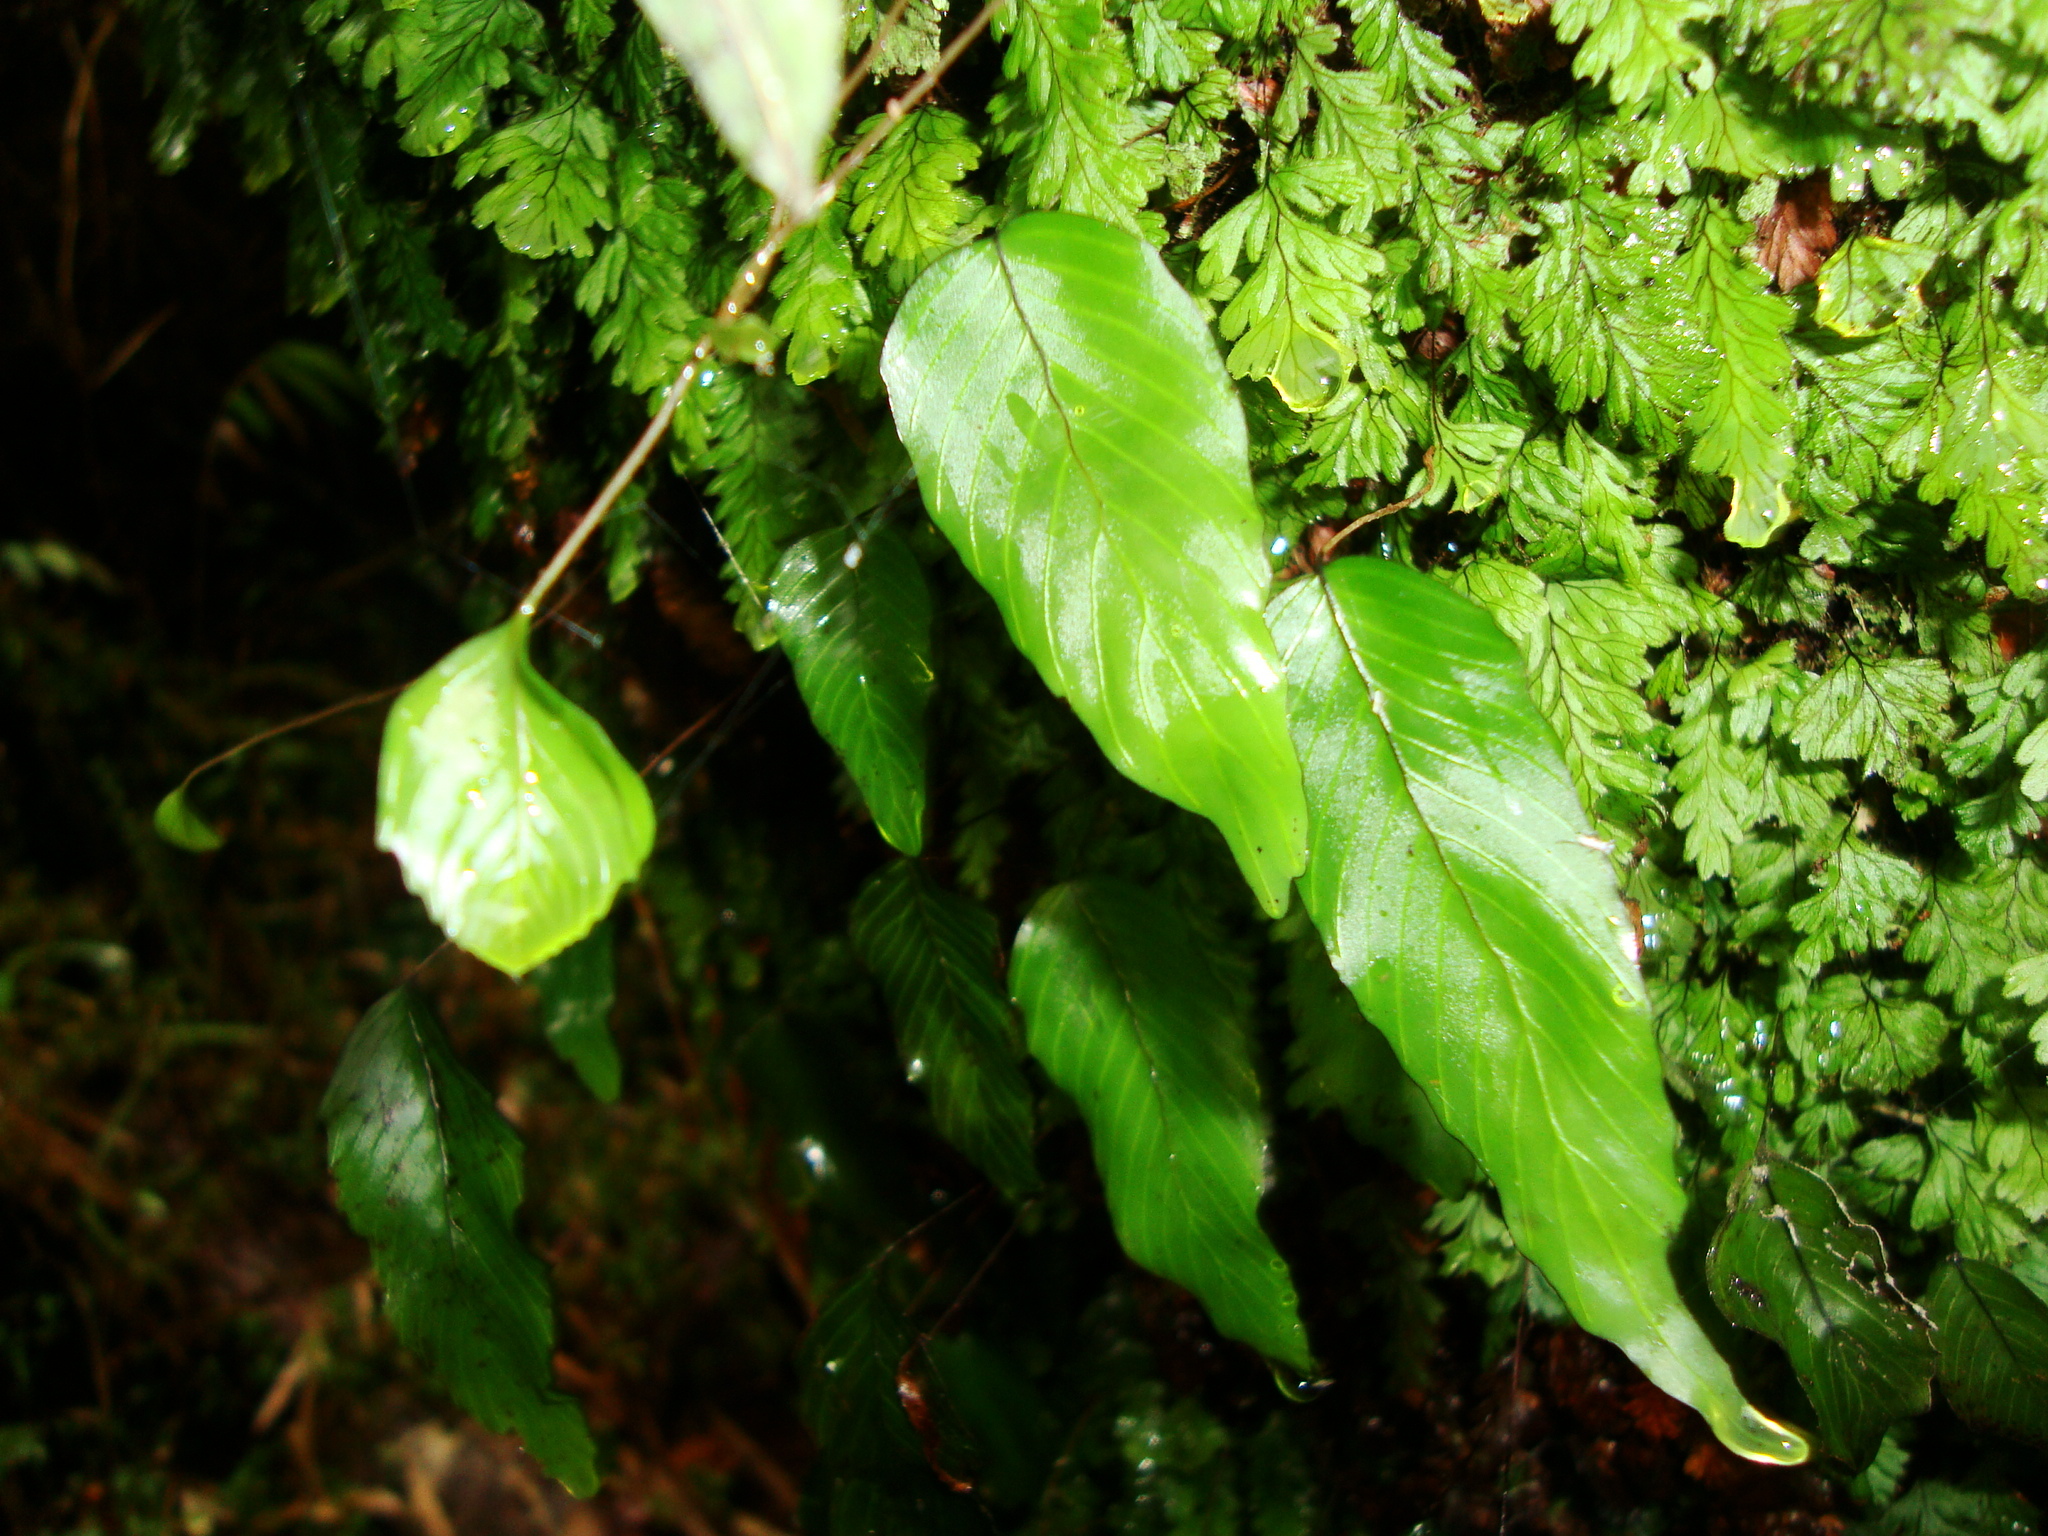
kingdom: Plantae
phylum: Tracheophyta
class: Polypodiopsida
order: Hymenophyllales
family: Hymenophyllaceae
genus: Hymenophyllum
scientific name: Hymenophyllum cruentum
